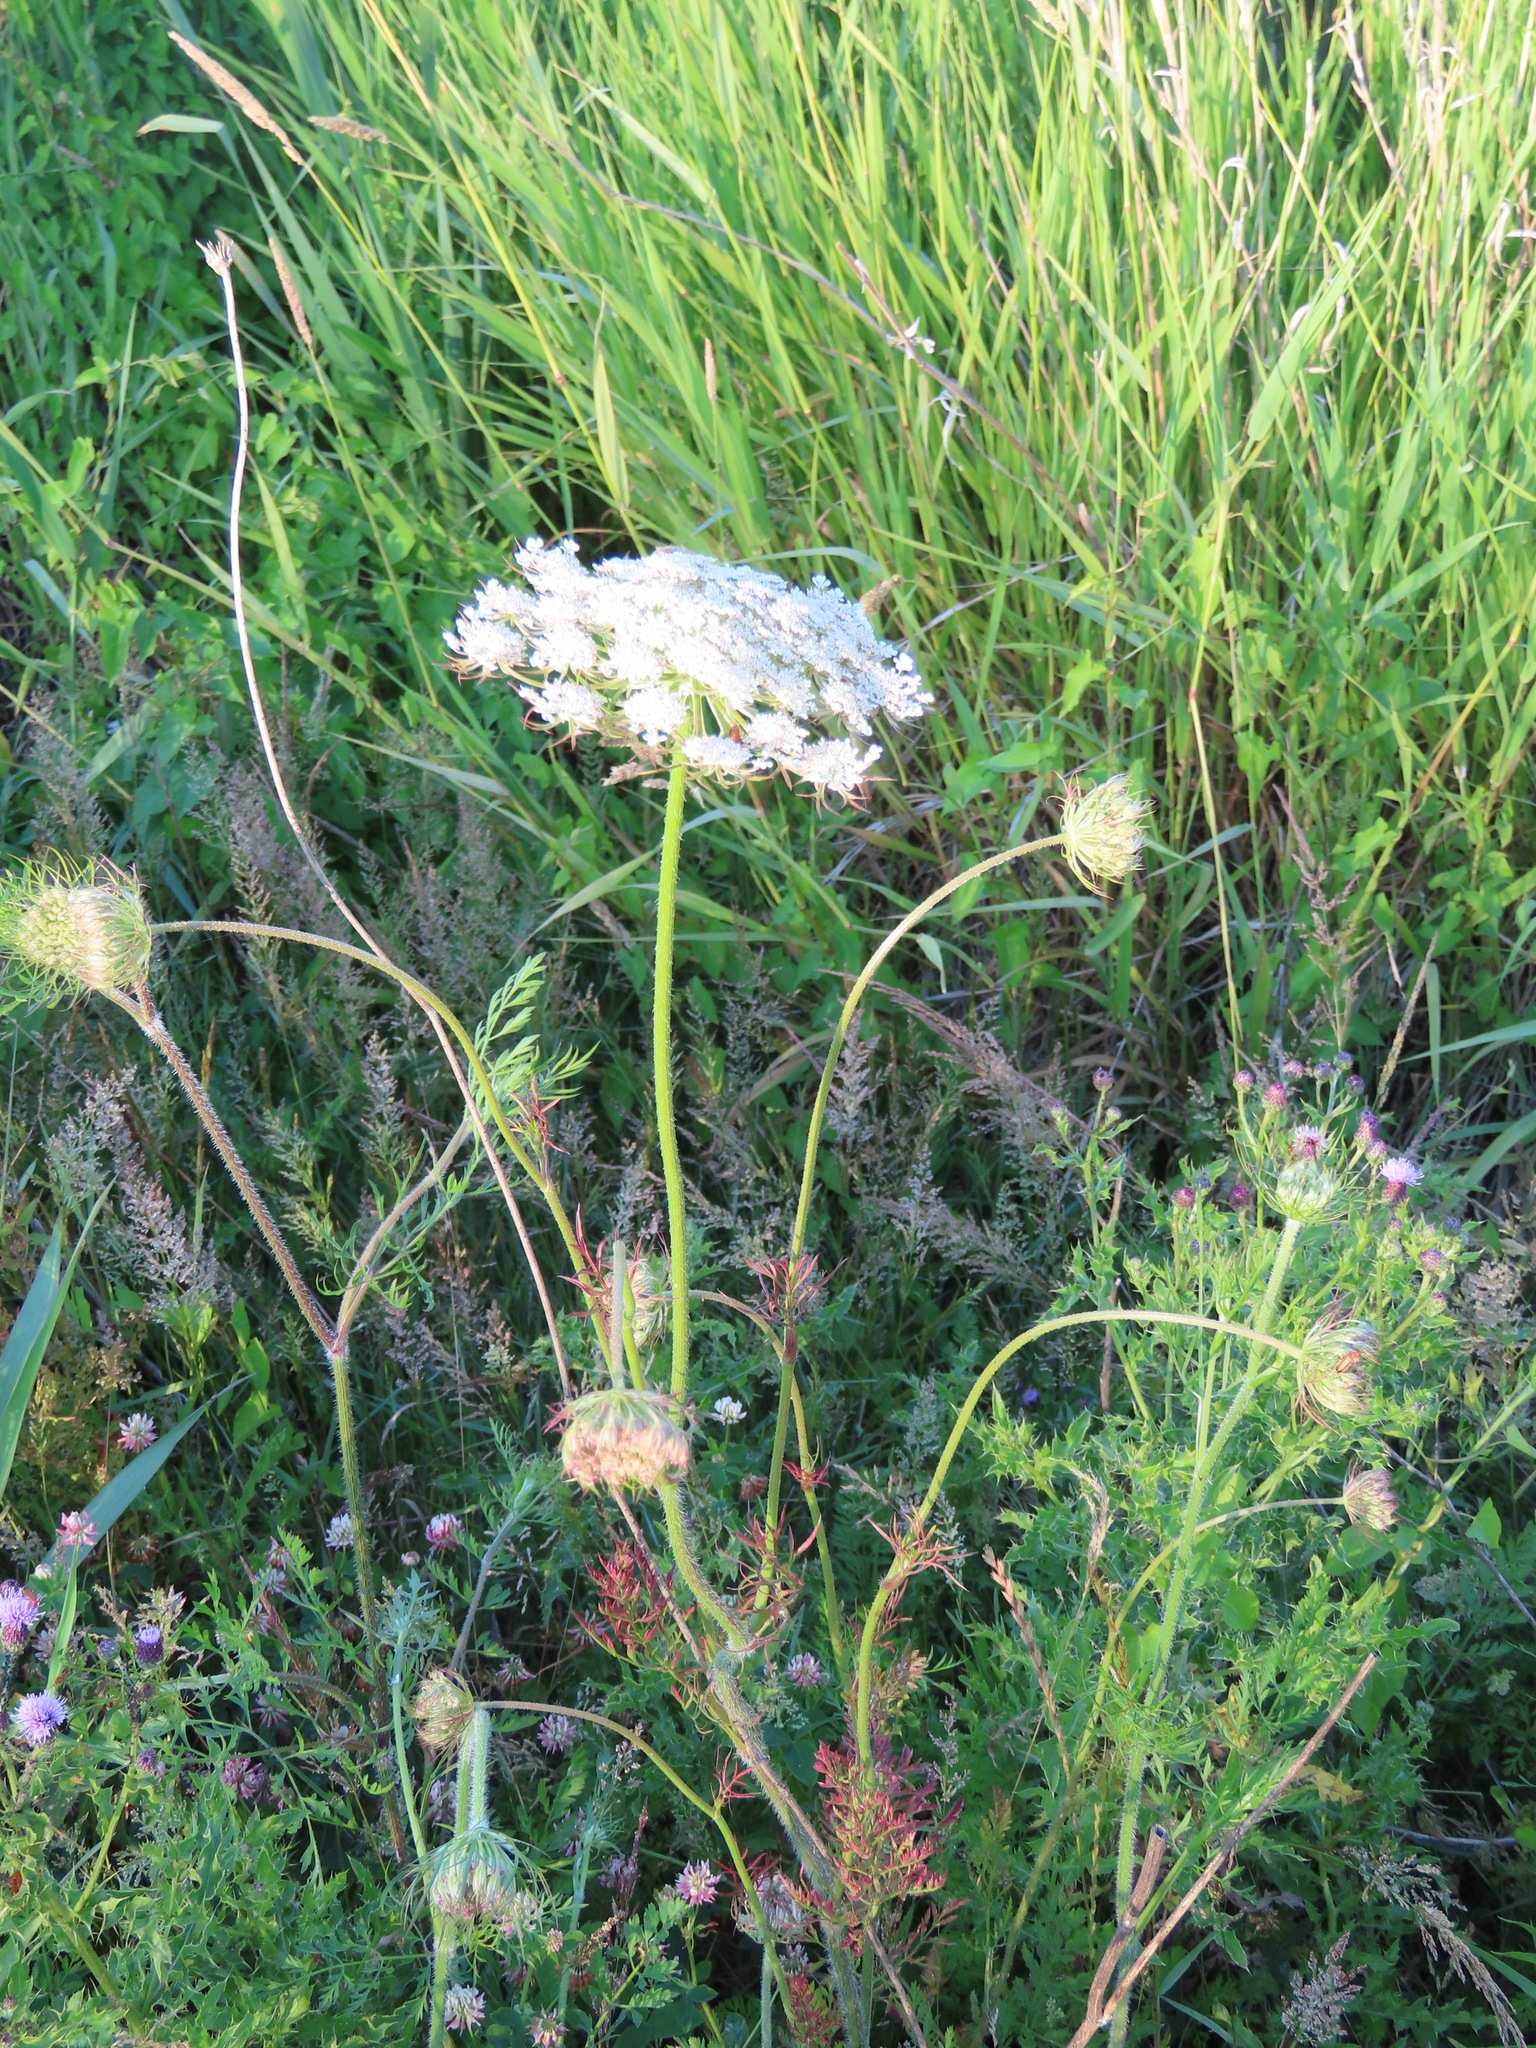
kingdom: Plantae
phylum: Tracheophyta
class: Magnoliopsida
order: Apiales
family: Apiaceae
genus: Daucus
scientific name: Daucus carota
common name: Wild carrot
